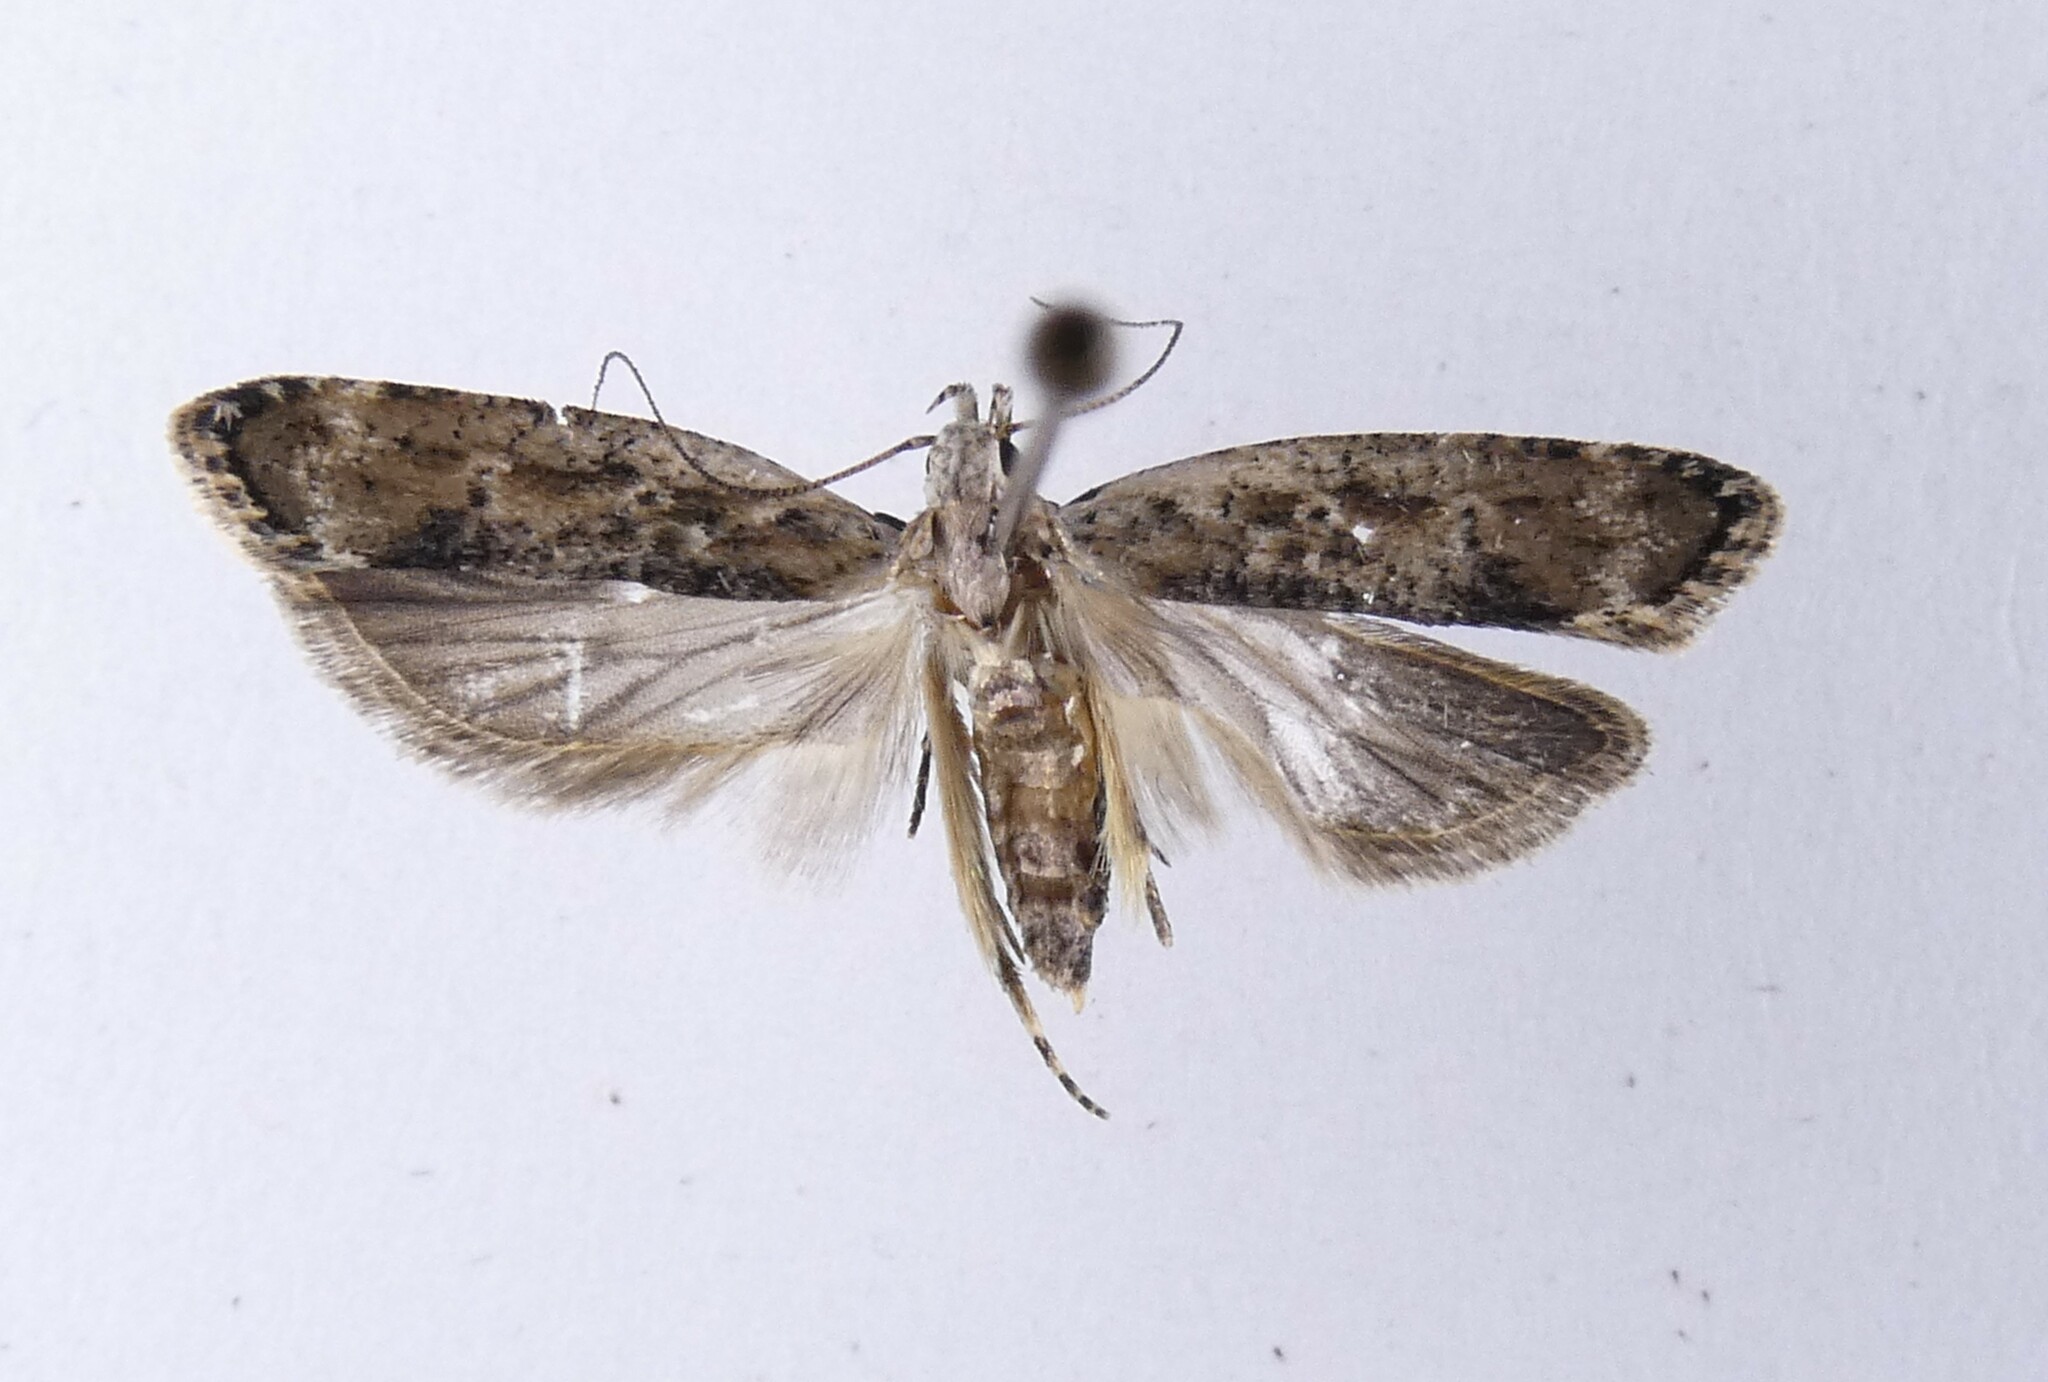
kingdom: Animalia
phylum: Arthropoda
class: Insecta
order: Lepidoptera
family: Gelechiidae
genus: Anisoplaca
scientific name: Anisoplaca achyrota
